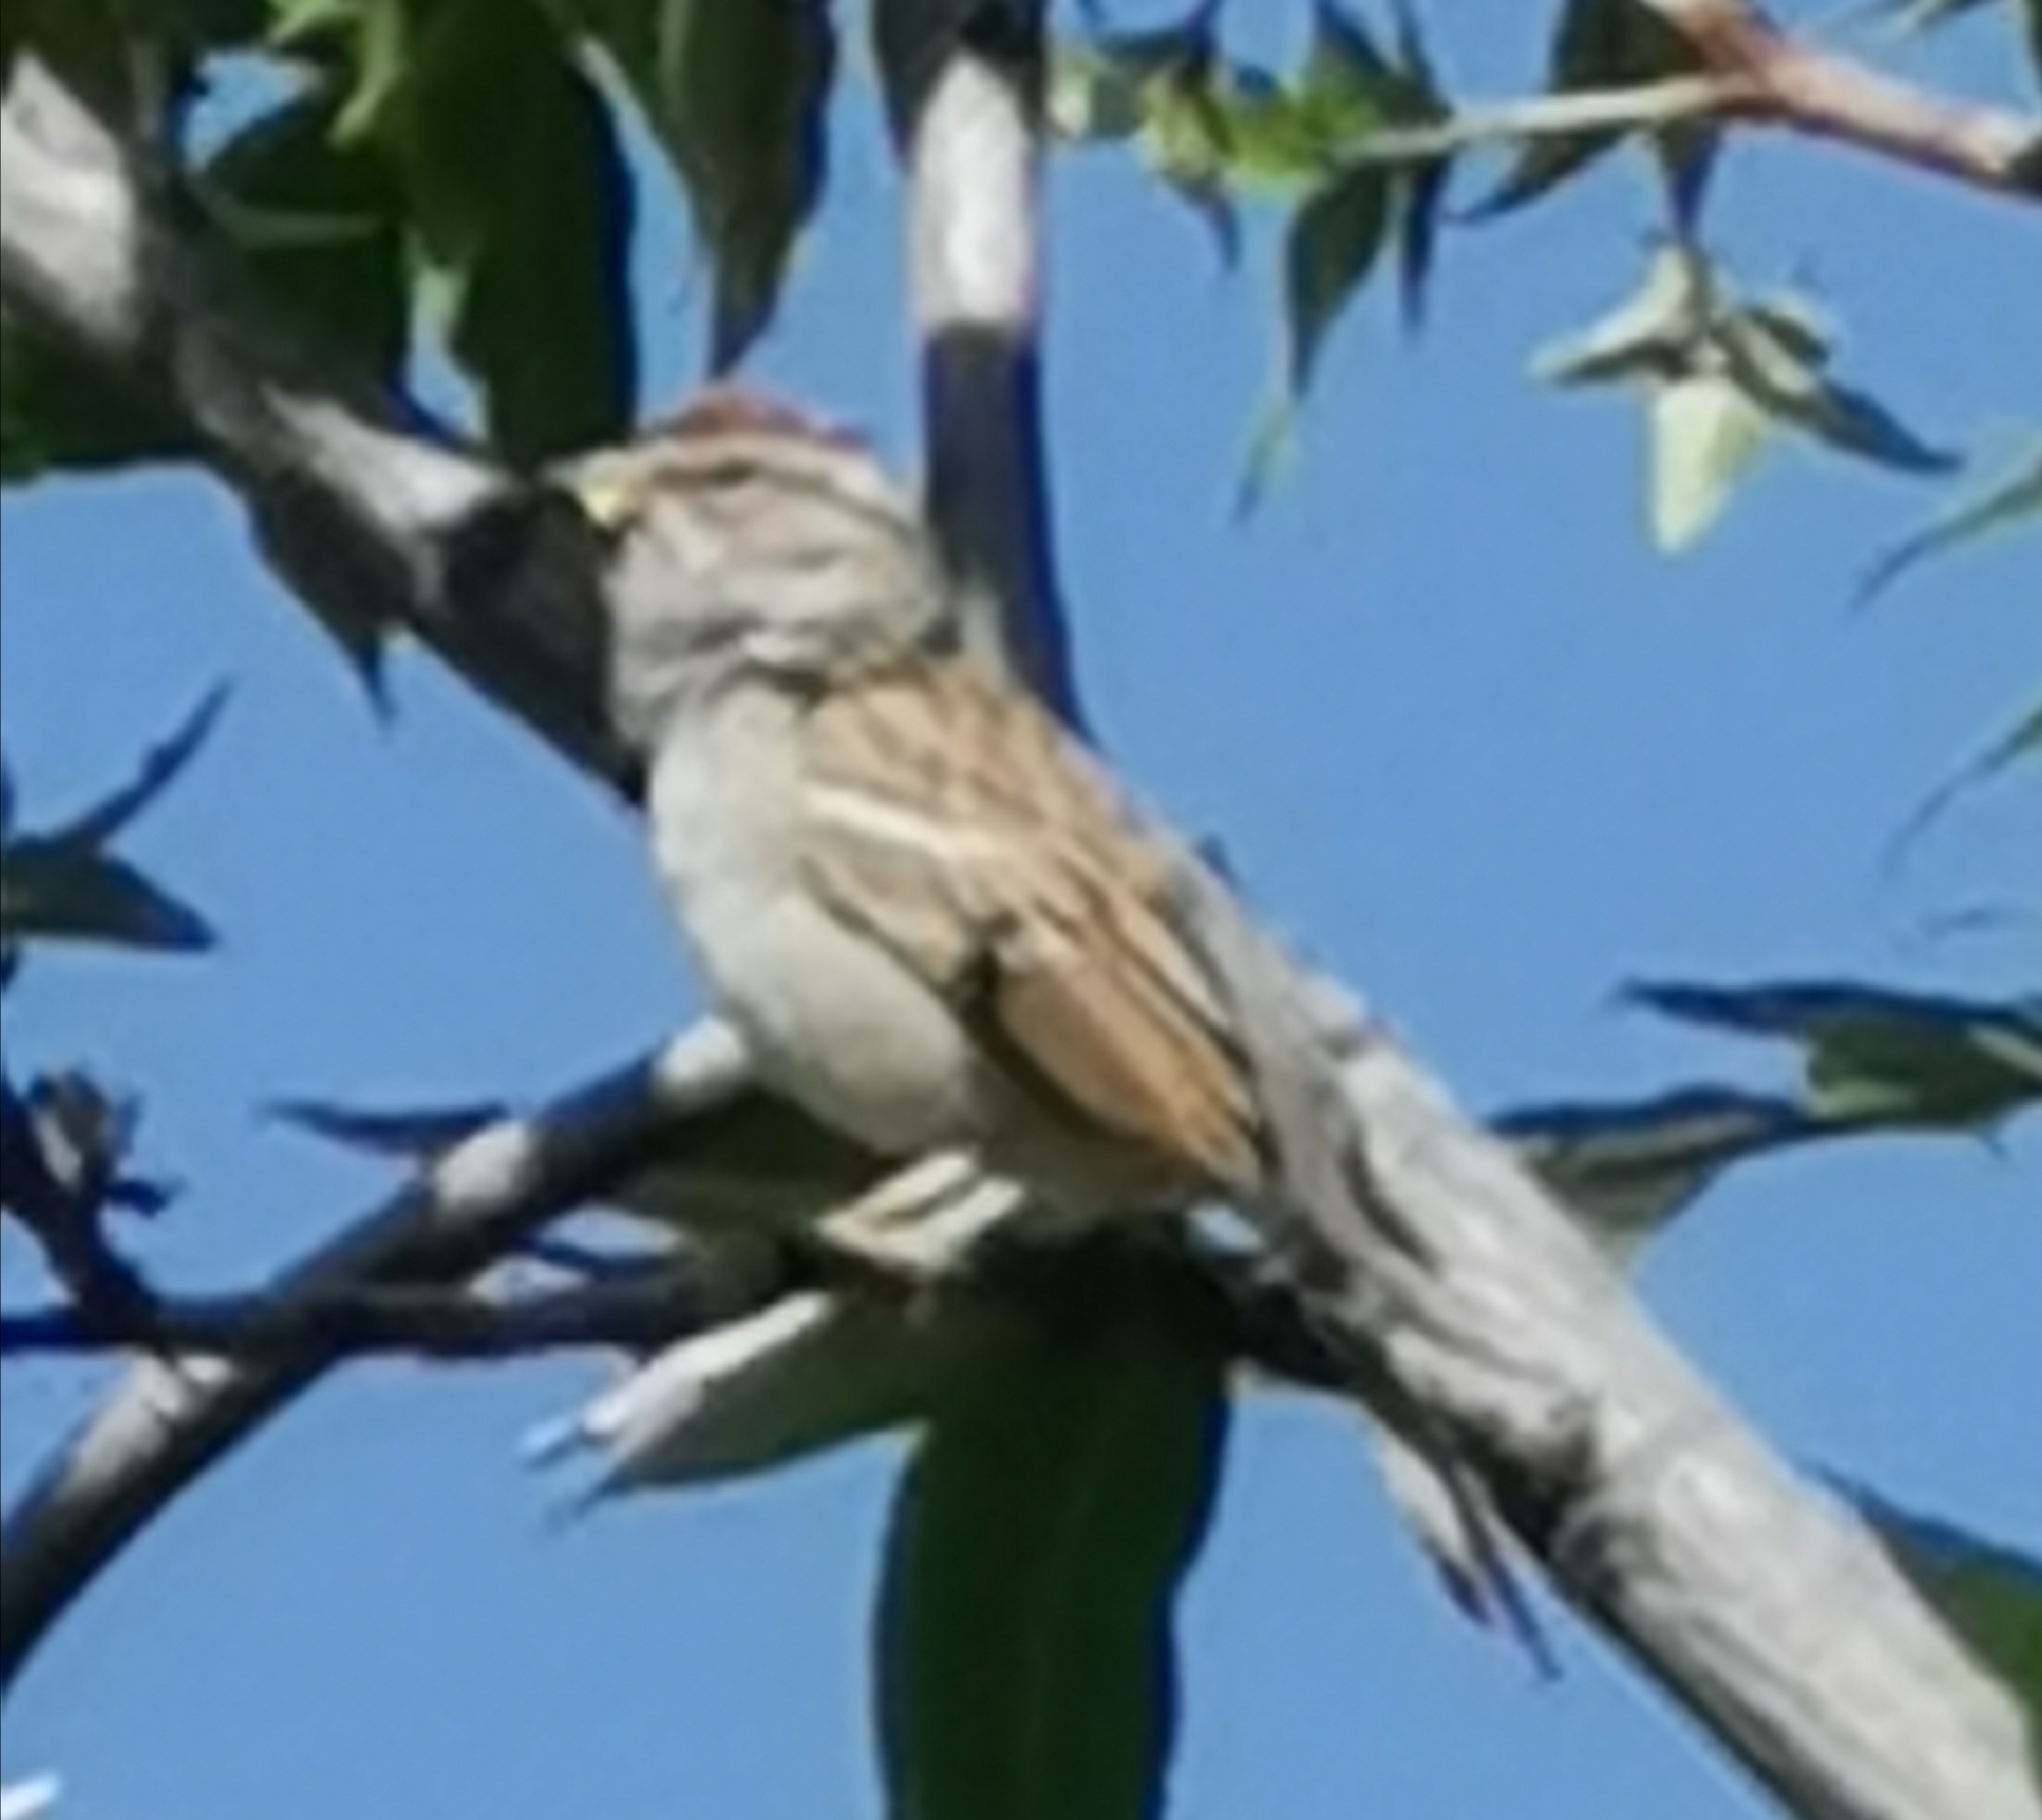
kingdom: Animalia
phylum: Chordata
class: Aves
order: Passeriformes
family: Passerellidae
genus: Spizella
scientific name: Spizella passerina
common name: Chipping sparrow
